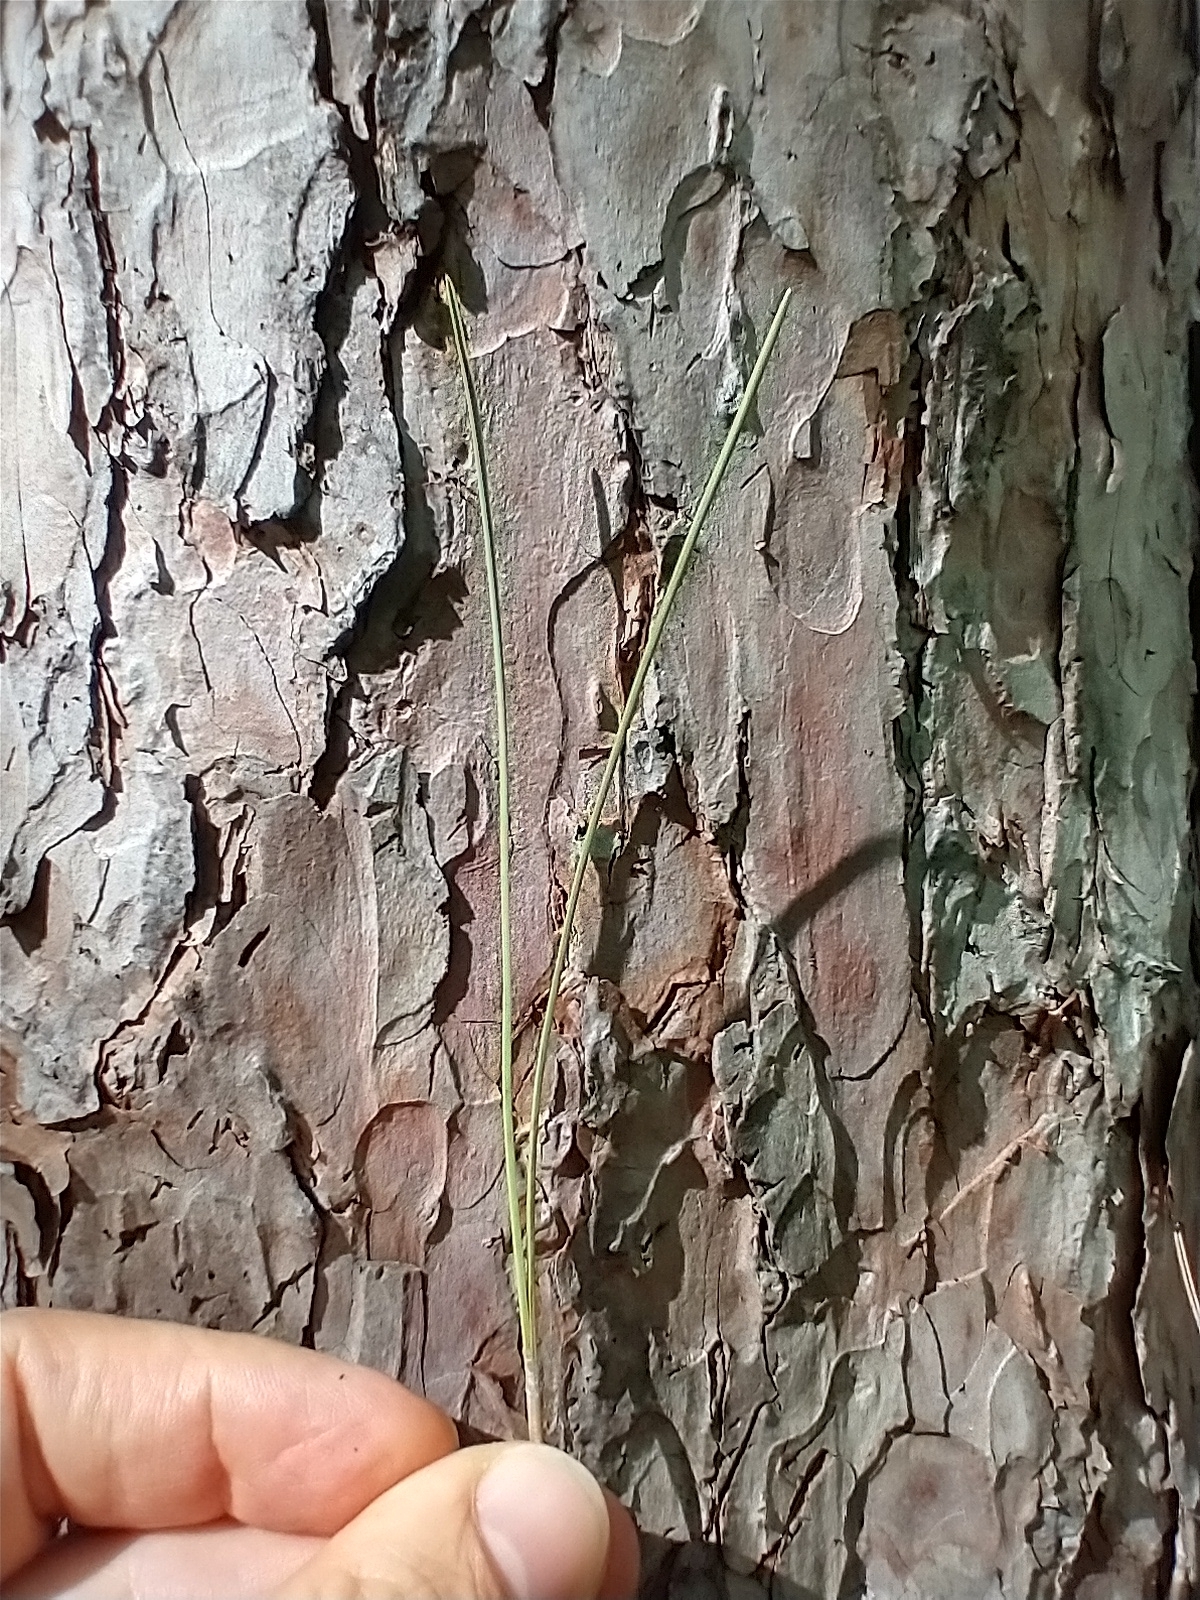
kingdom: Plantae
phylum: Tracheophyta
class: Pinopsida
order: Pinales
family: Pinaceae
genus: Pinus
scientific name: Pinus resinosa
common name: Norway pine
